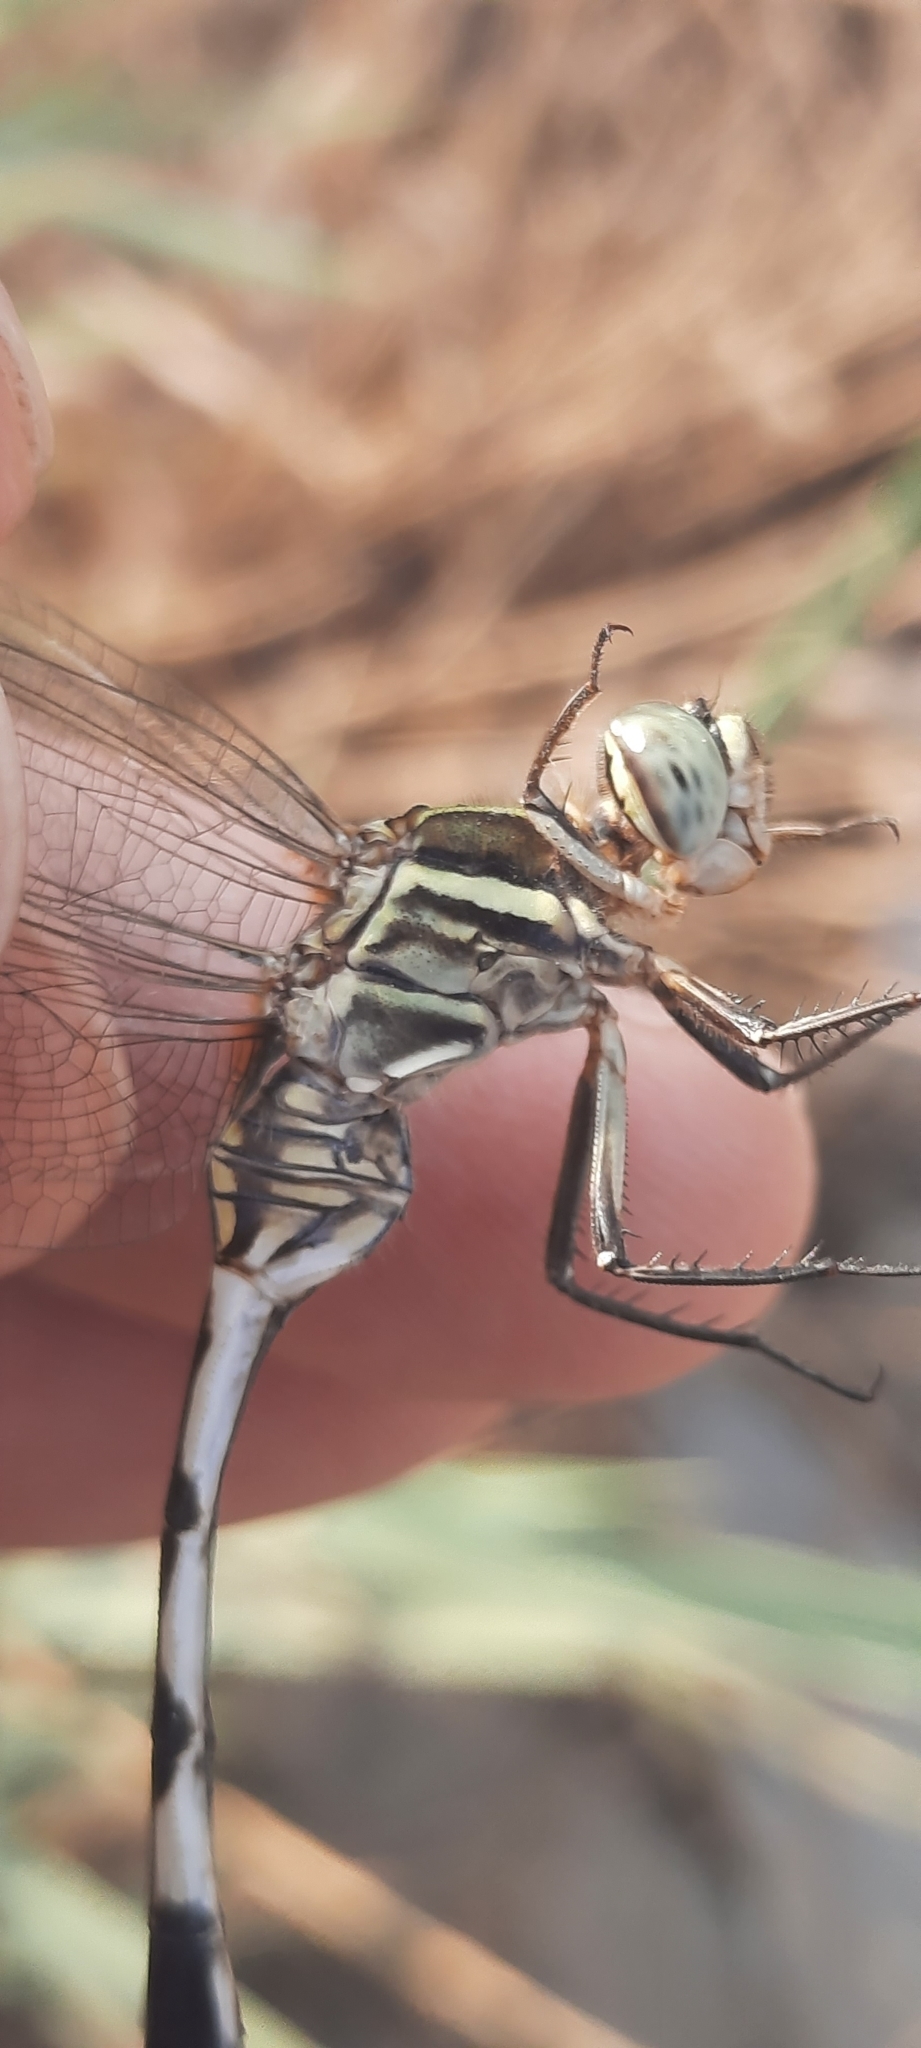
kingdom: Animalia
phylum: Arthropoda
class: Insecta
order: Odonata
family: Libellulidae
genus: Orthetrum
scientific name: Orthetrum sabina
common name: Slender skimmer
